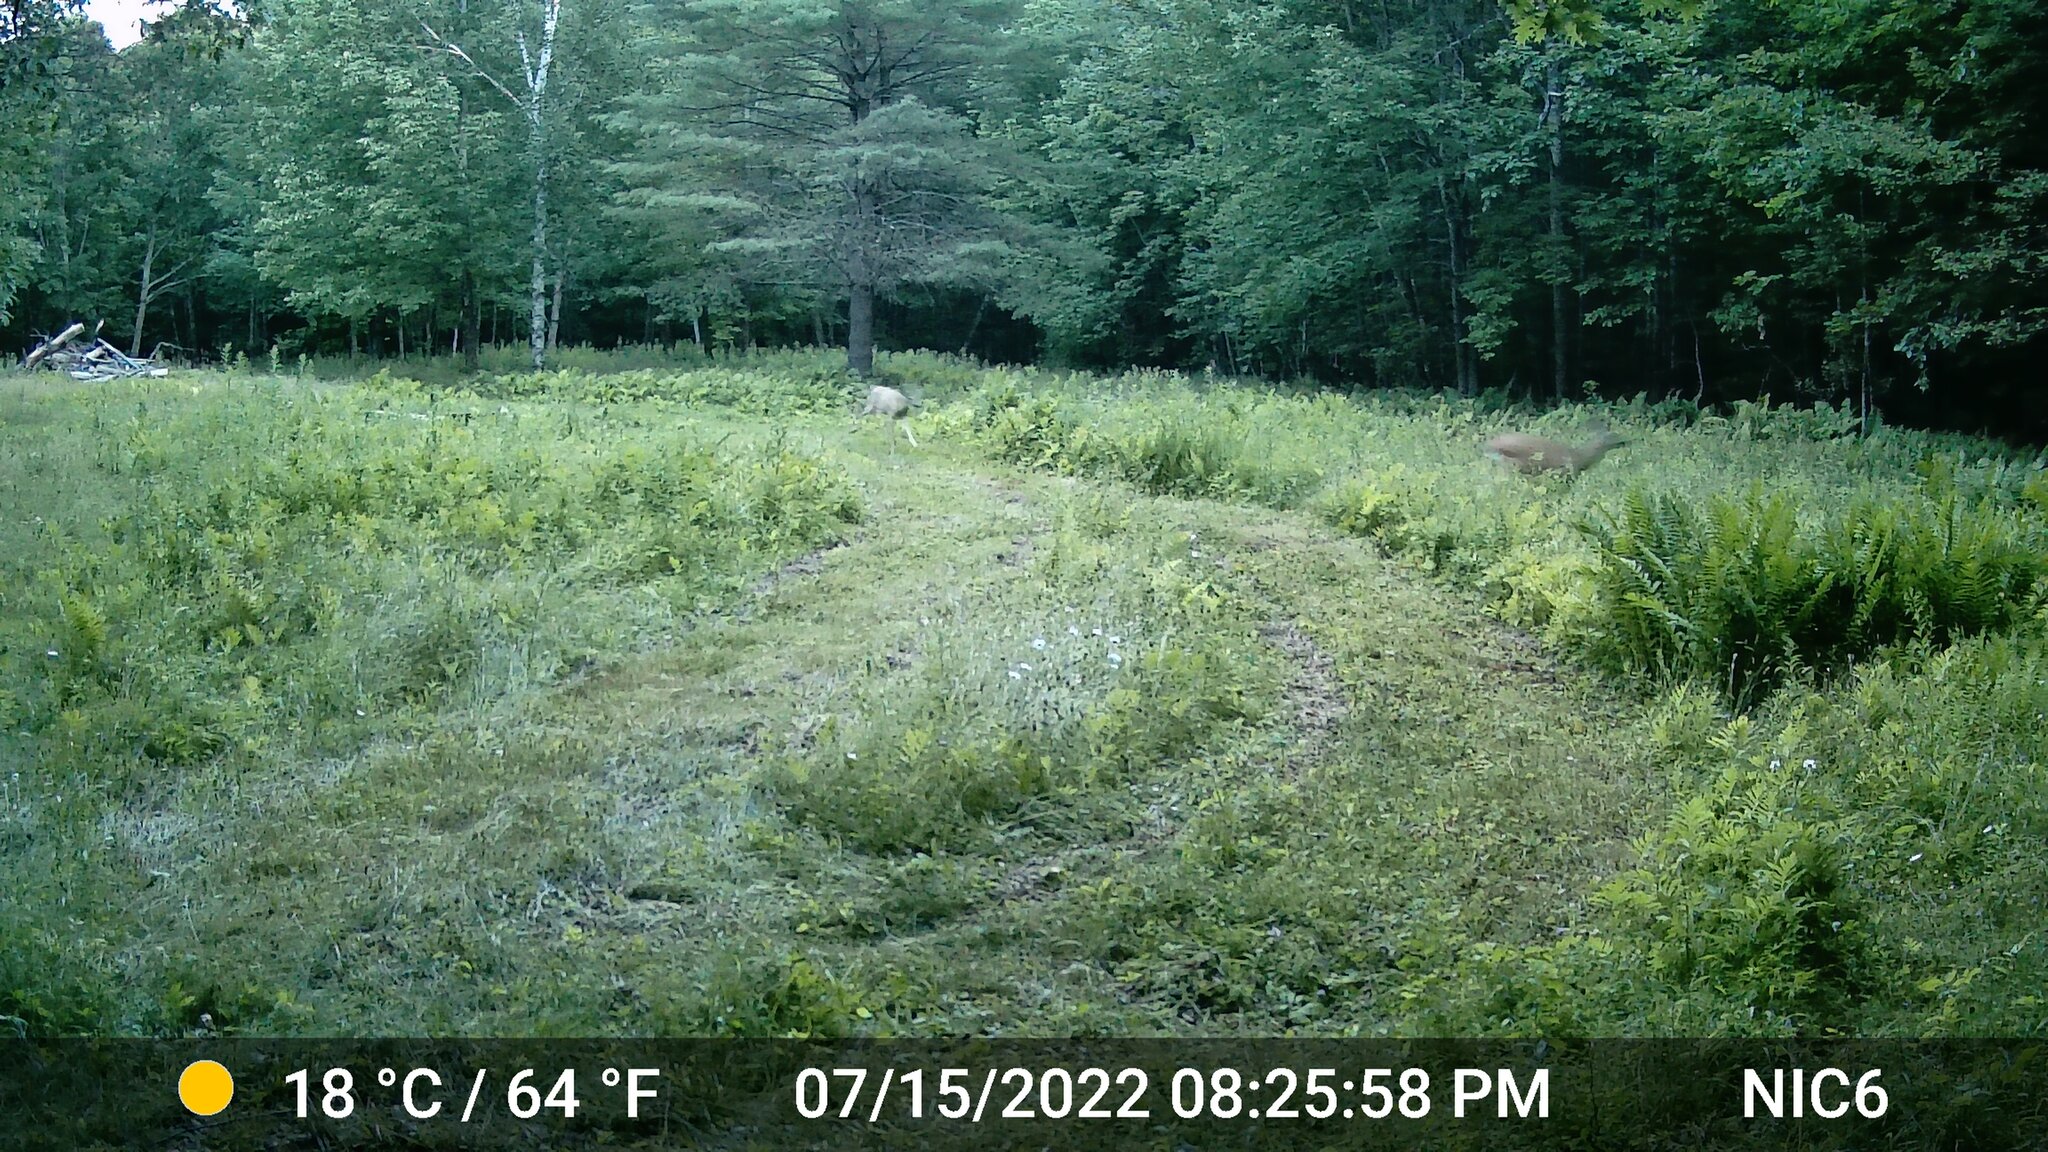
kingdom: Animalia
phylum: Chordata
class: Mammalia
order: Artiodactyla
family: Cervidae
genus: Odocoileus
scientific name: Odocoileus virginianus
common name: White-tailed deer
